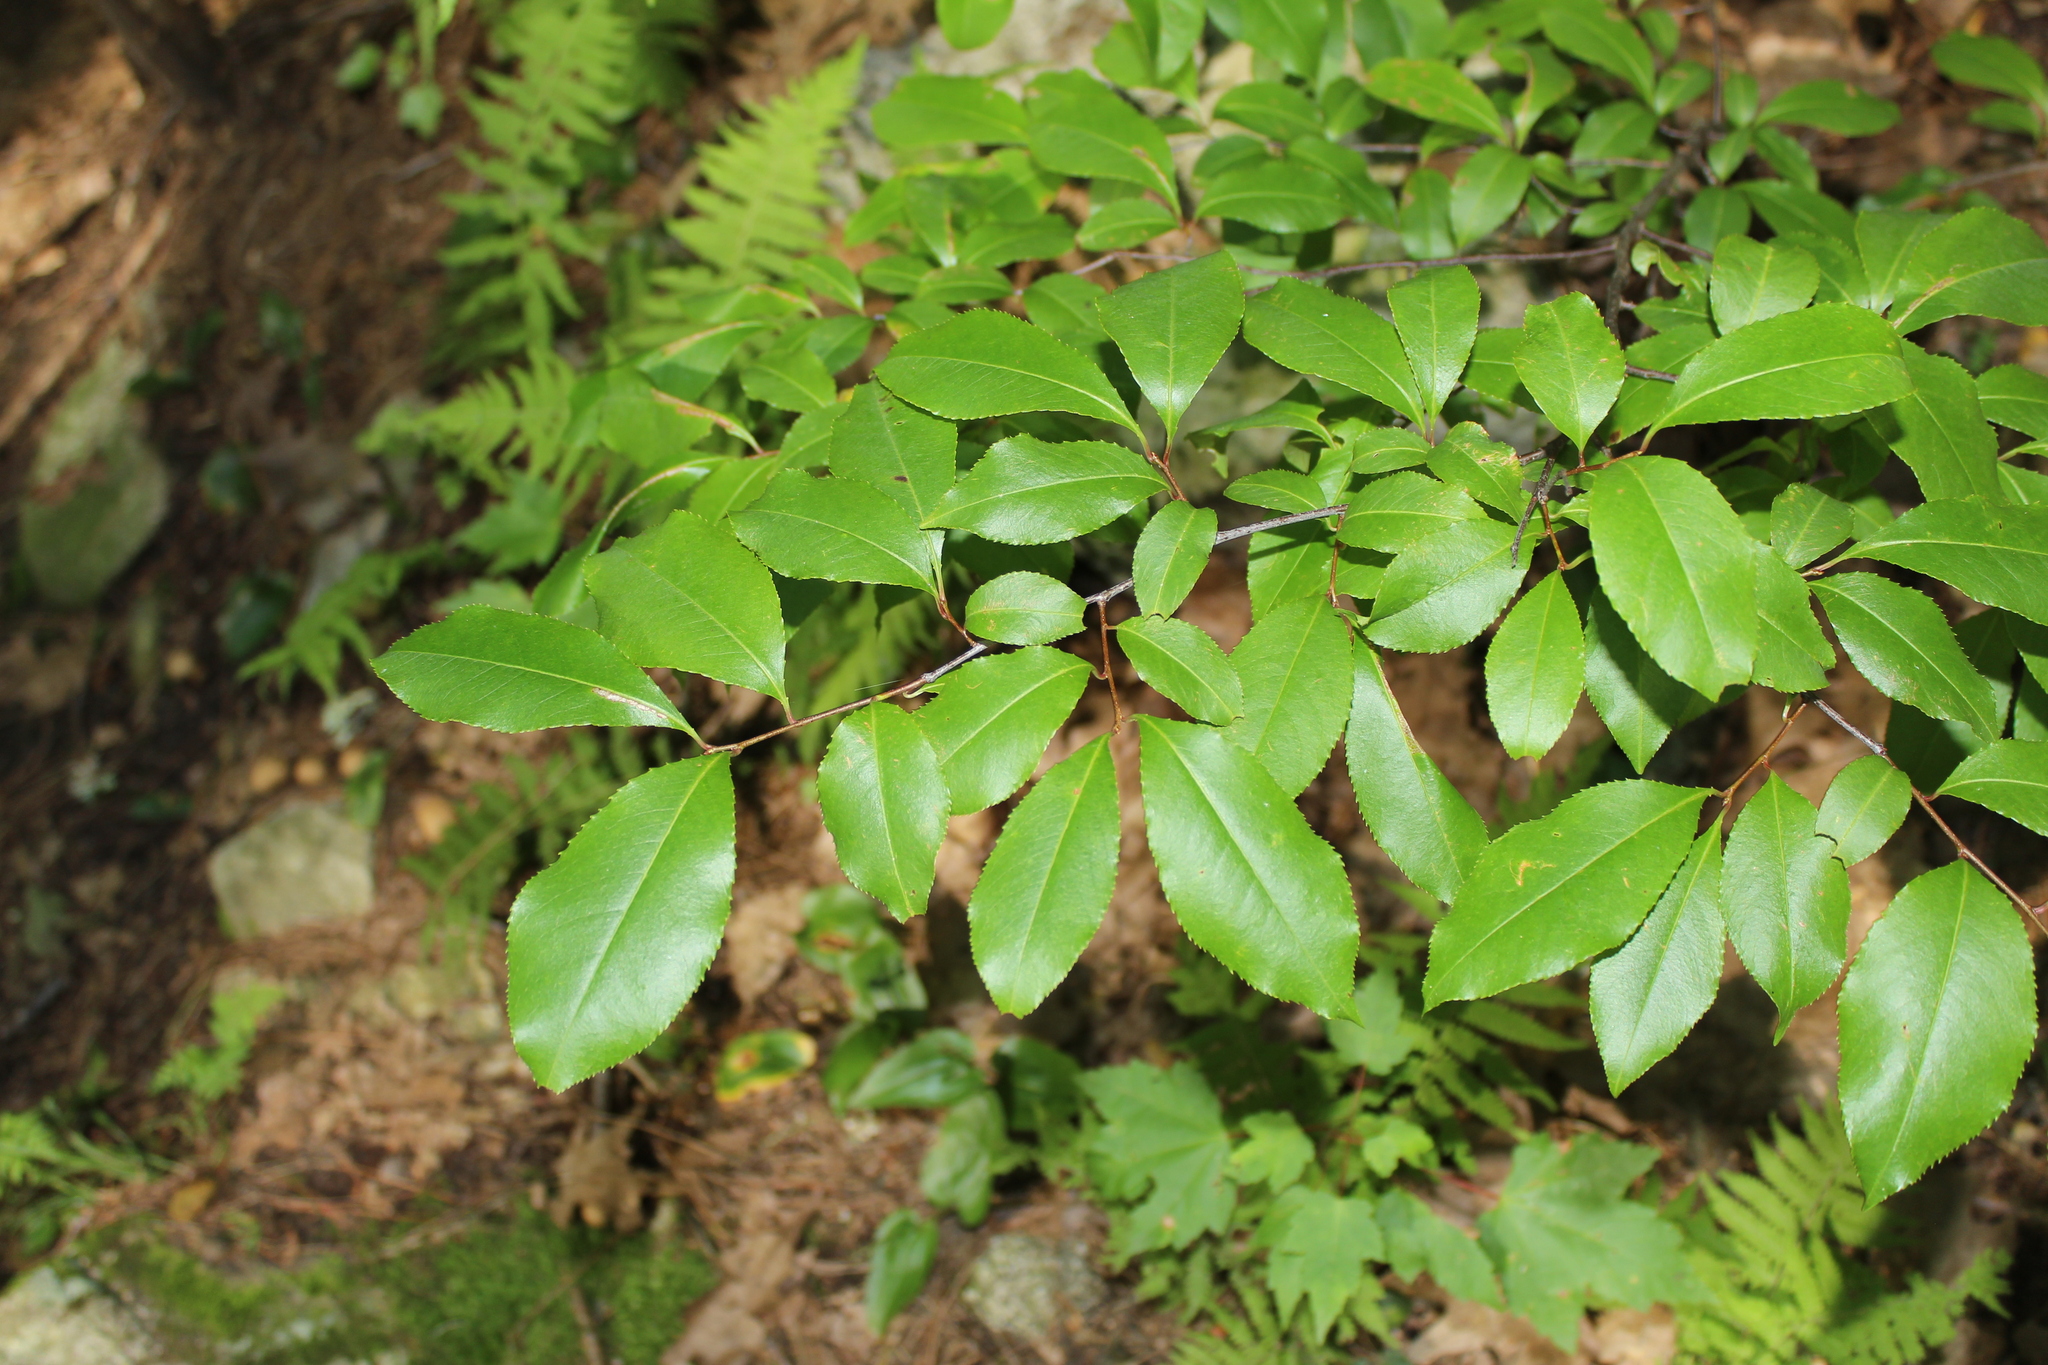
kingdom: Plantae
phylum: Tracheophyta
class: Magnoliopsida
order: Rosales
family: Rosaceae
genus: Prunus
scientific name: Prunus serotina
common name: Black cherry
